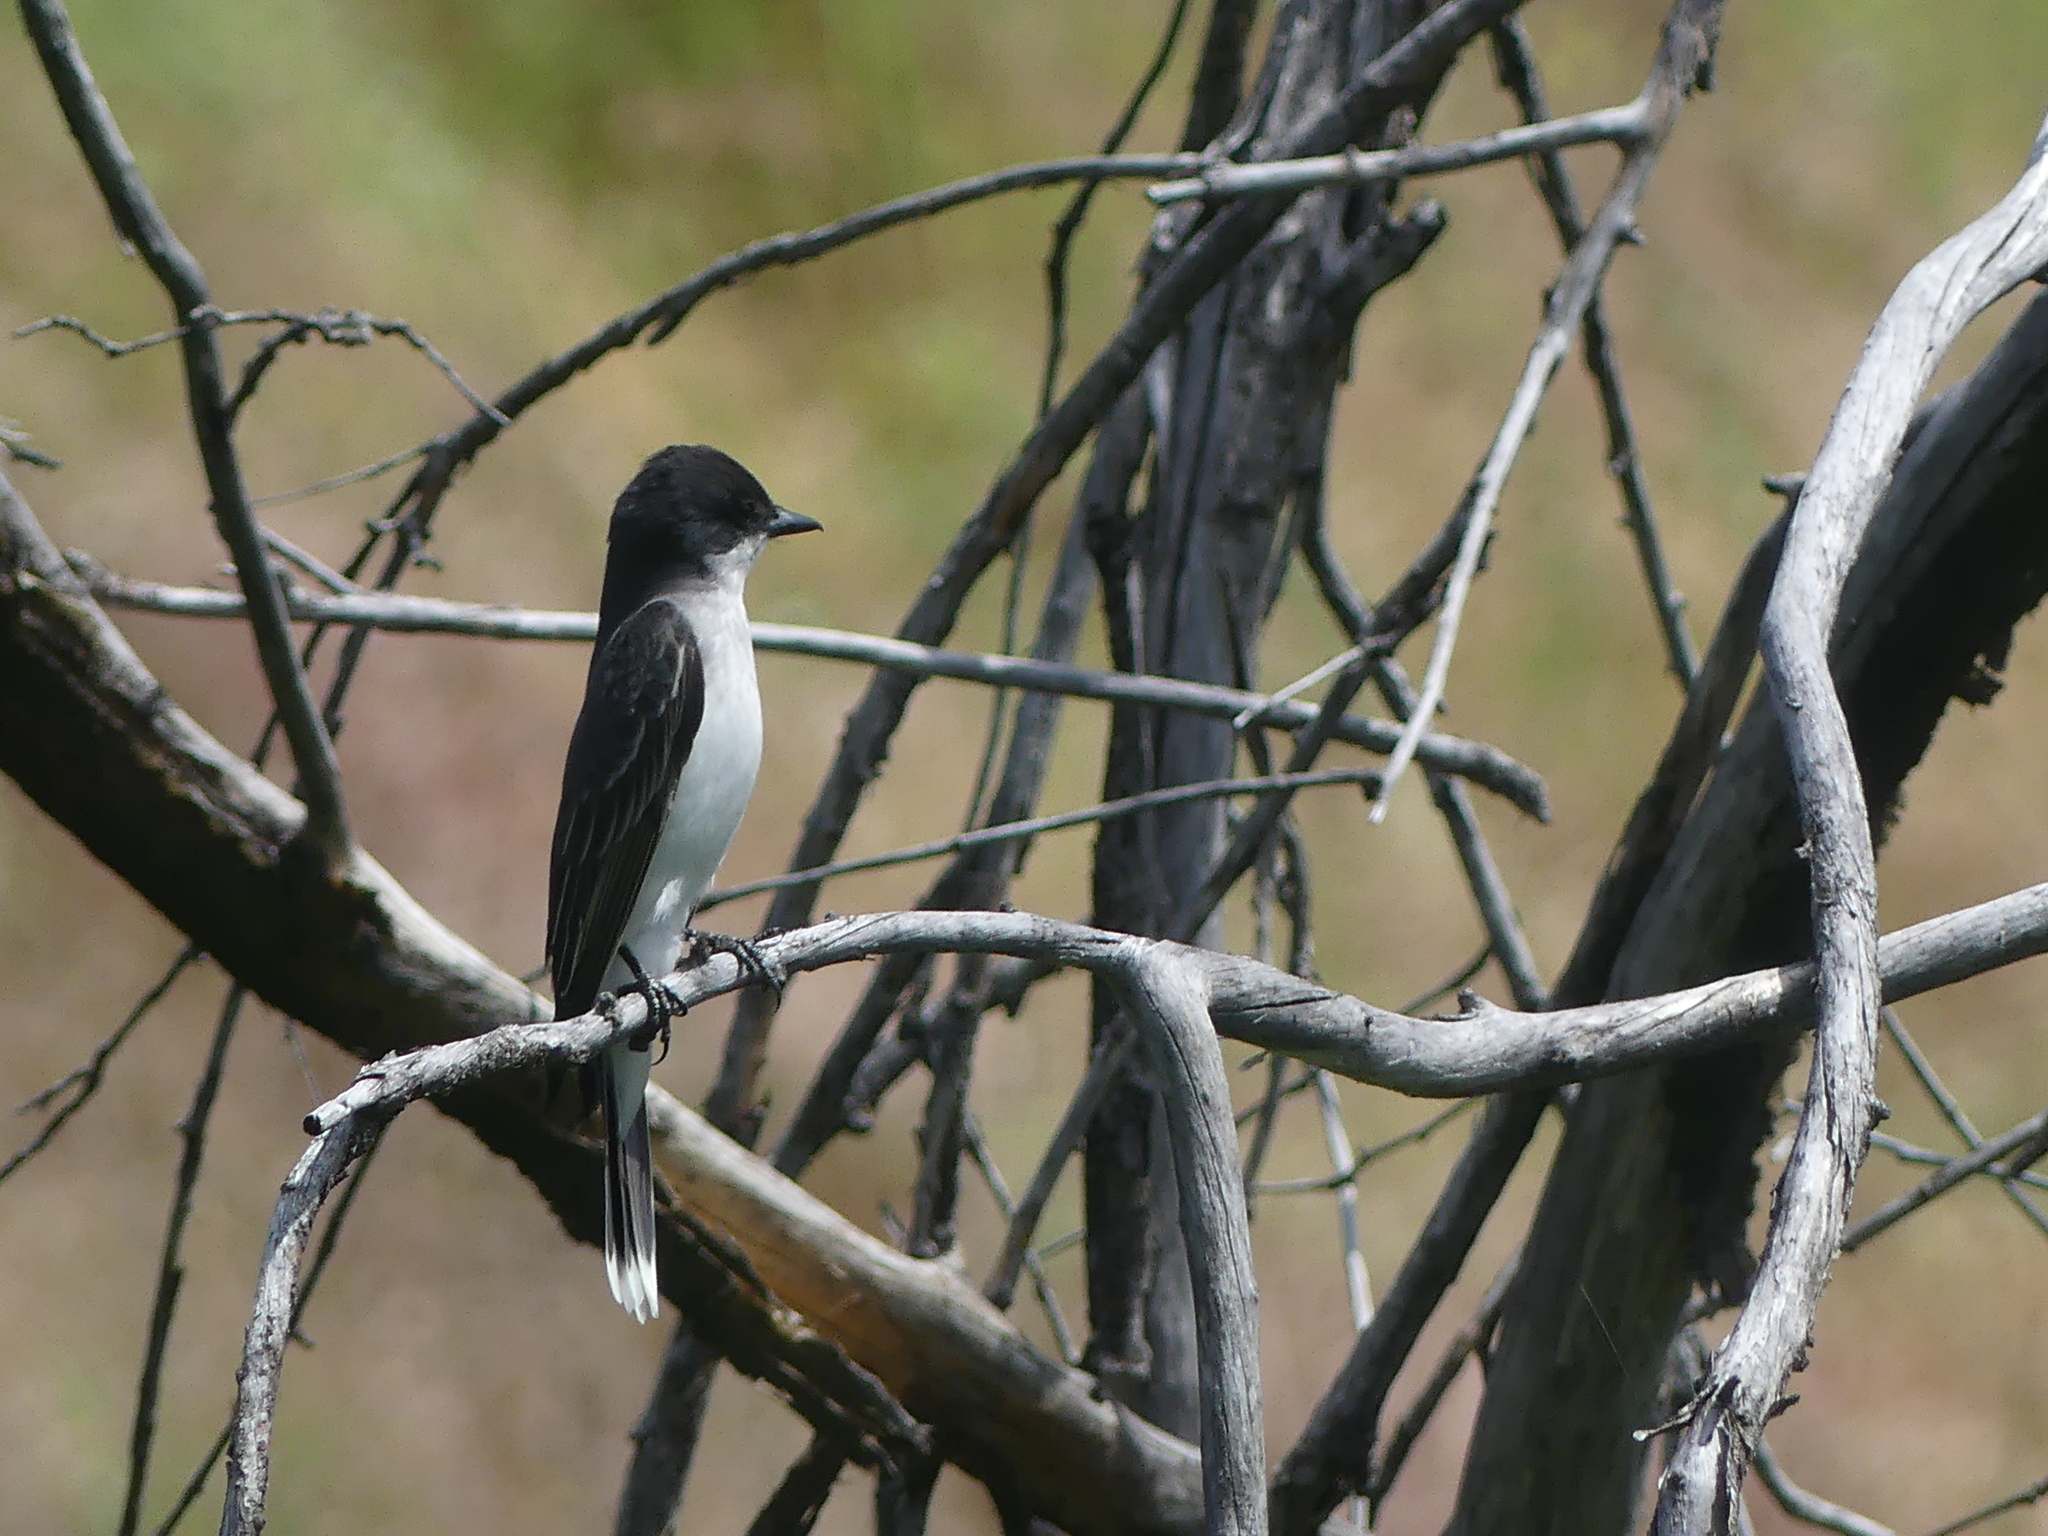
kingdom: Animalia
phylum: Chordata
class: Aves
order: Passeriformes
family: Tyrannidae
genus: Tyrannus
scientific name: Tyrannus tyrannus
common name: Eastern kingbird
